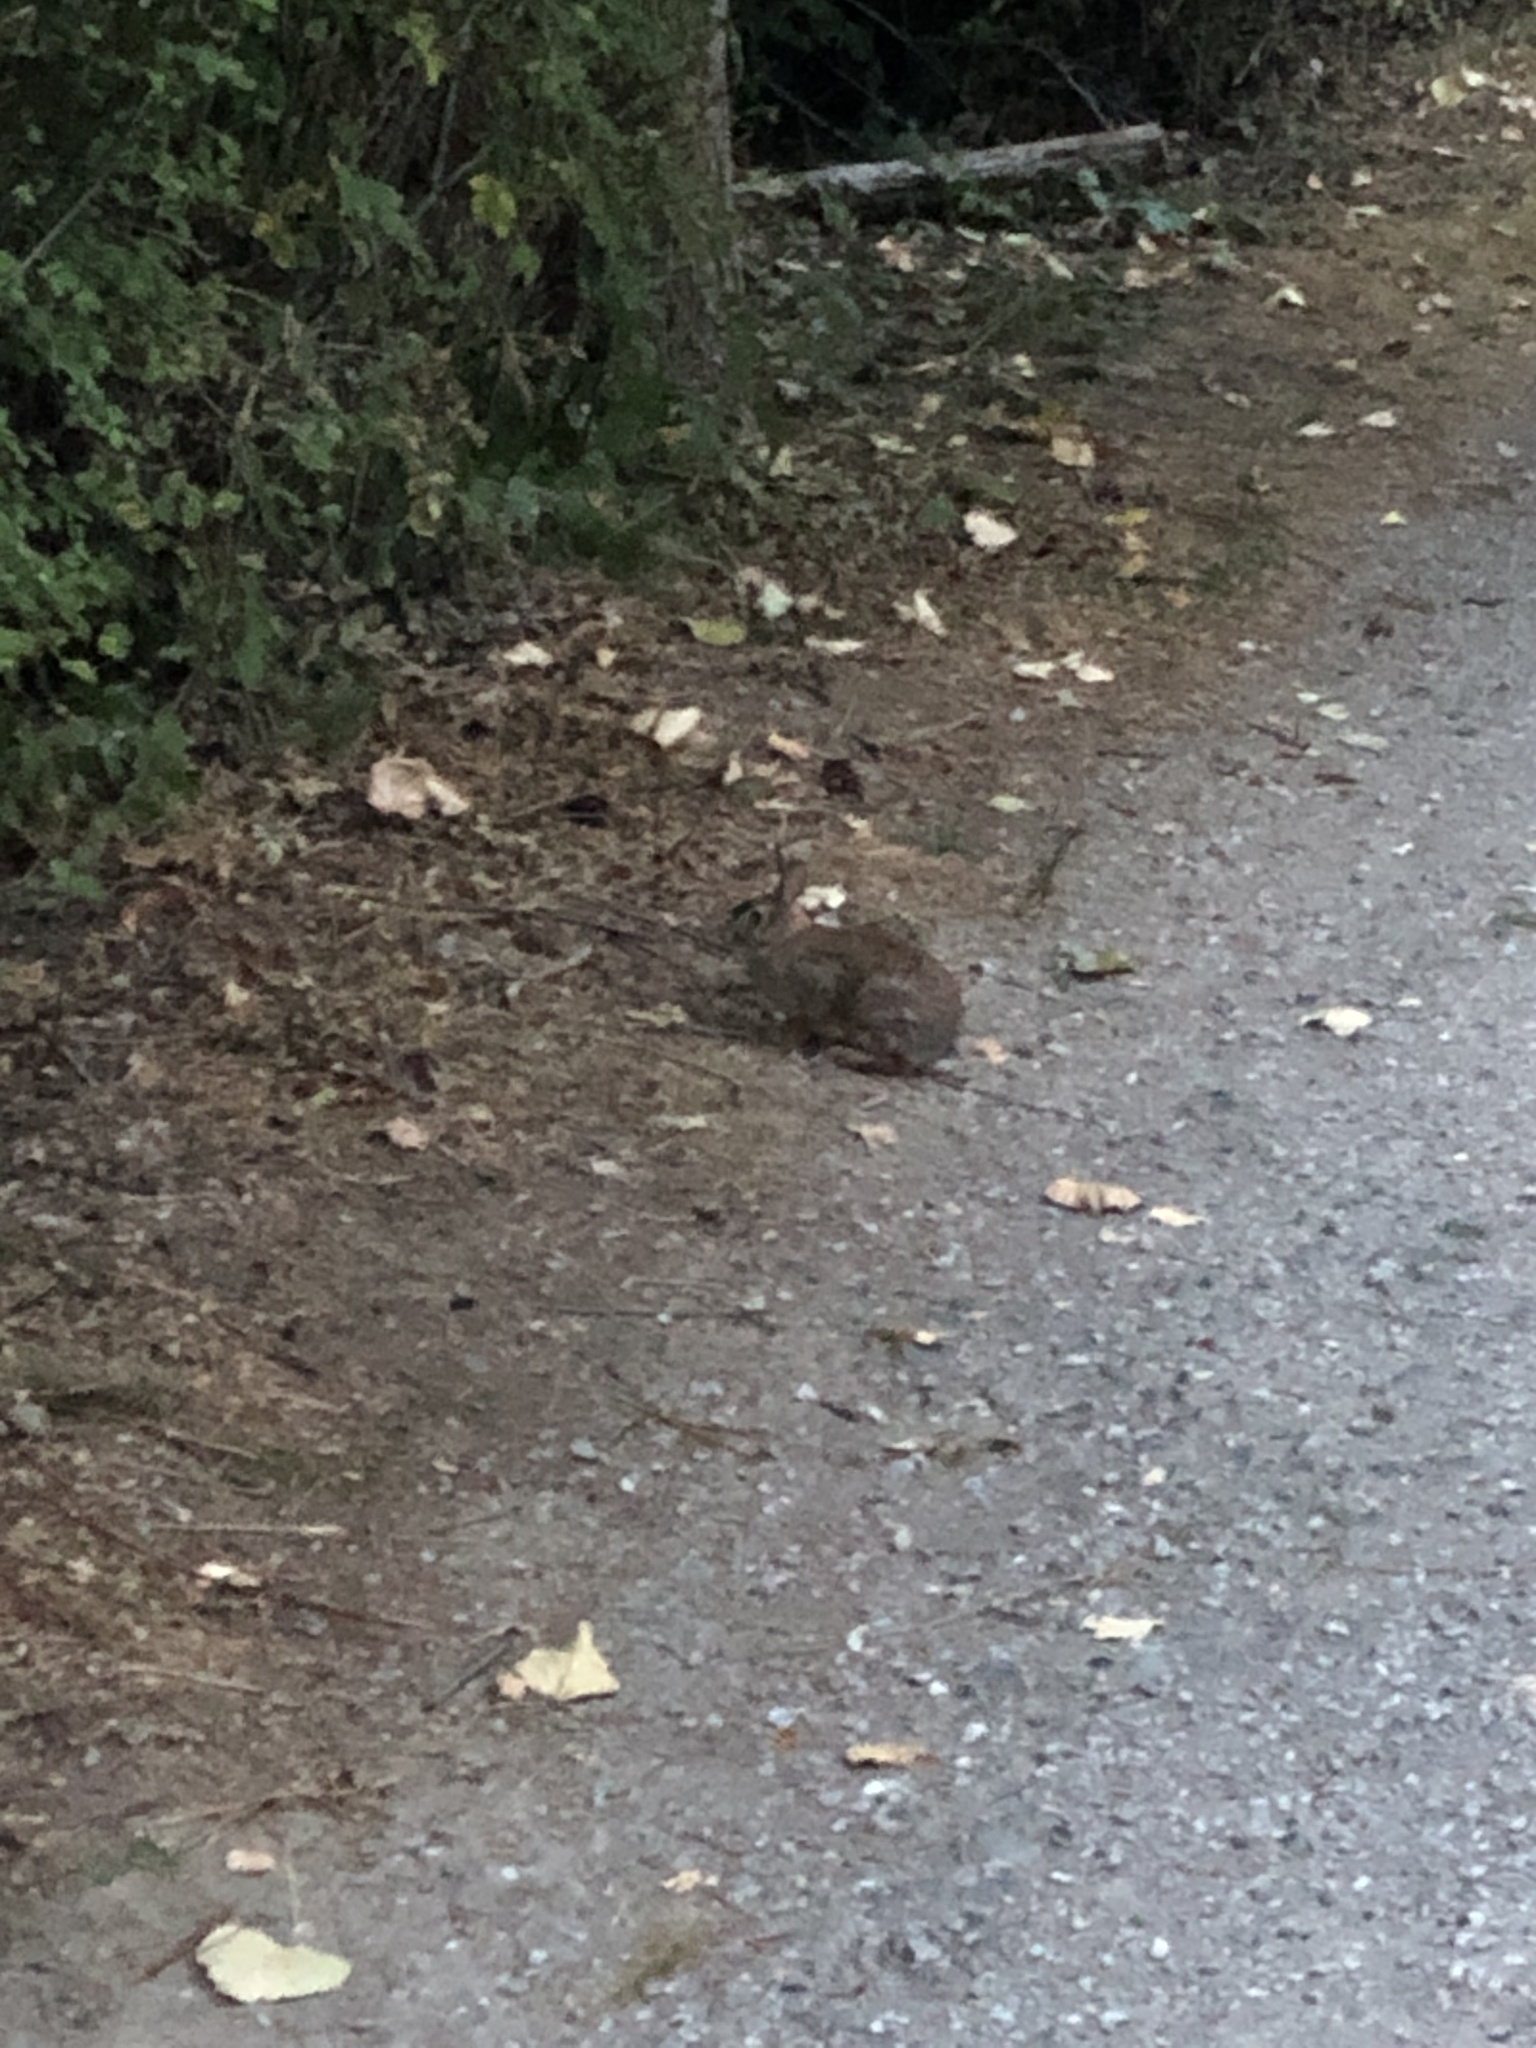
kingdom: Animalia
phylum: Chordata
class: Mammalia
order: Lagomorpha
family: Leporidae
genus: Sylvilagus
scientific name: Sylvilagus floridanus
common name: Eastern cottontail
